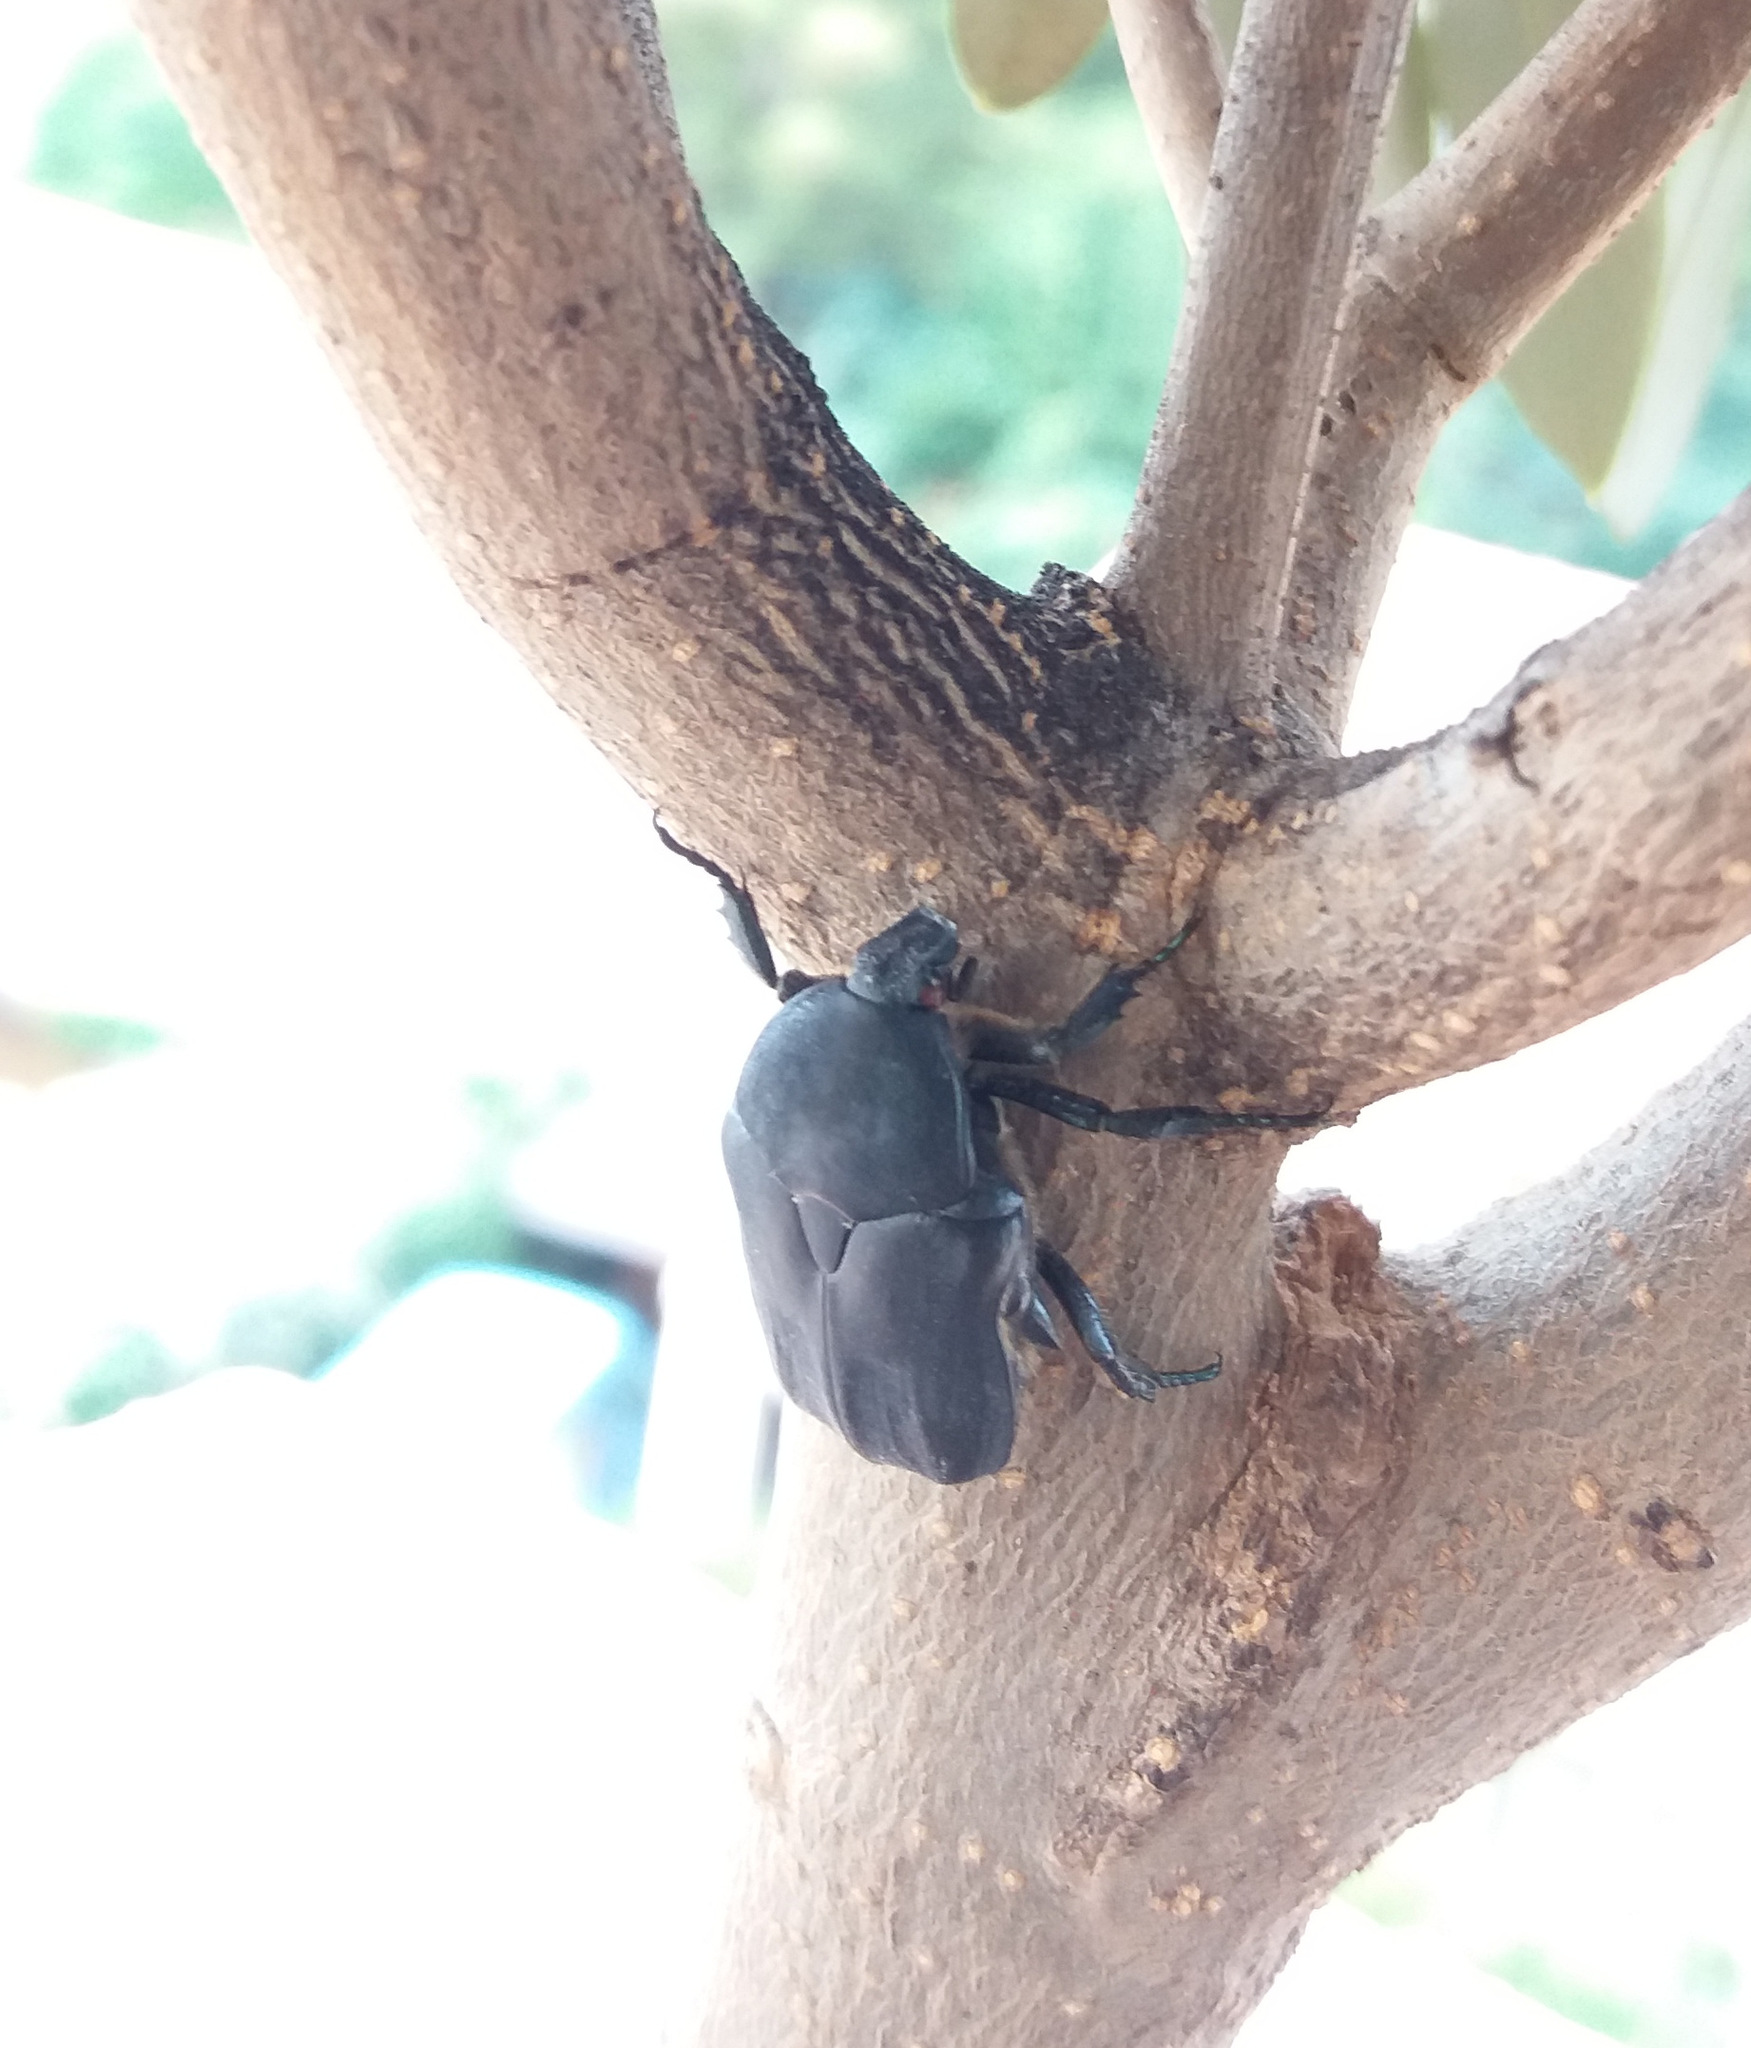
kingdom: Animalia
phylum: Arthropoda
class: Insecta
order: Coleoptera
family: Scarabaeidae
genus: Protaetia
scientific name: Protaetia opaca
